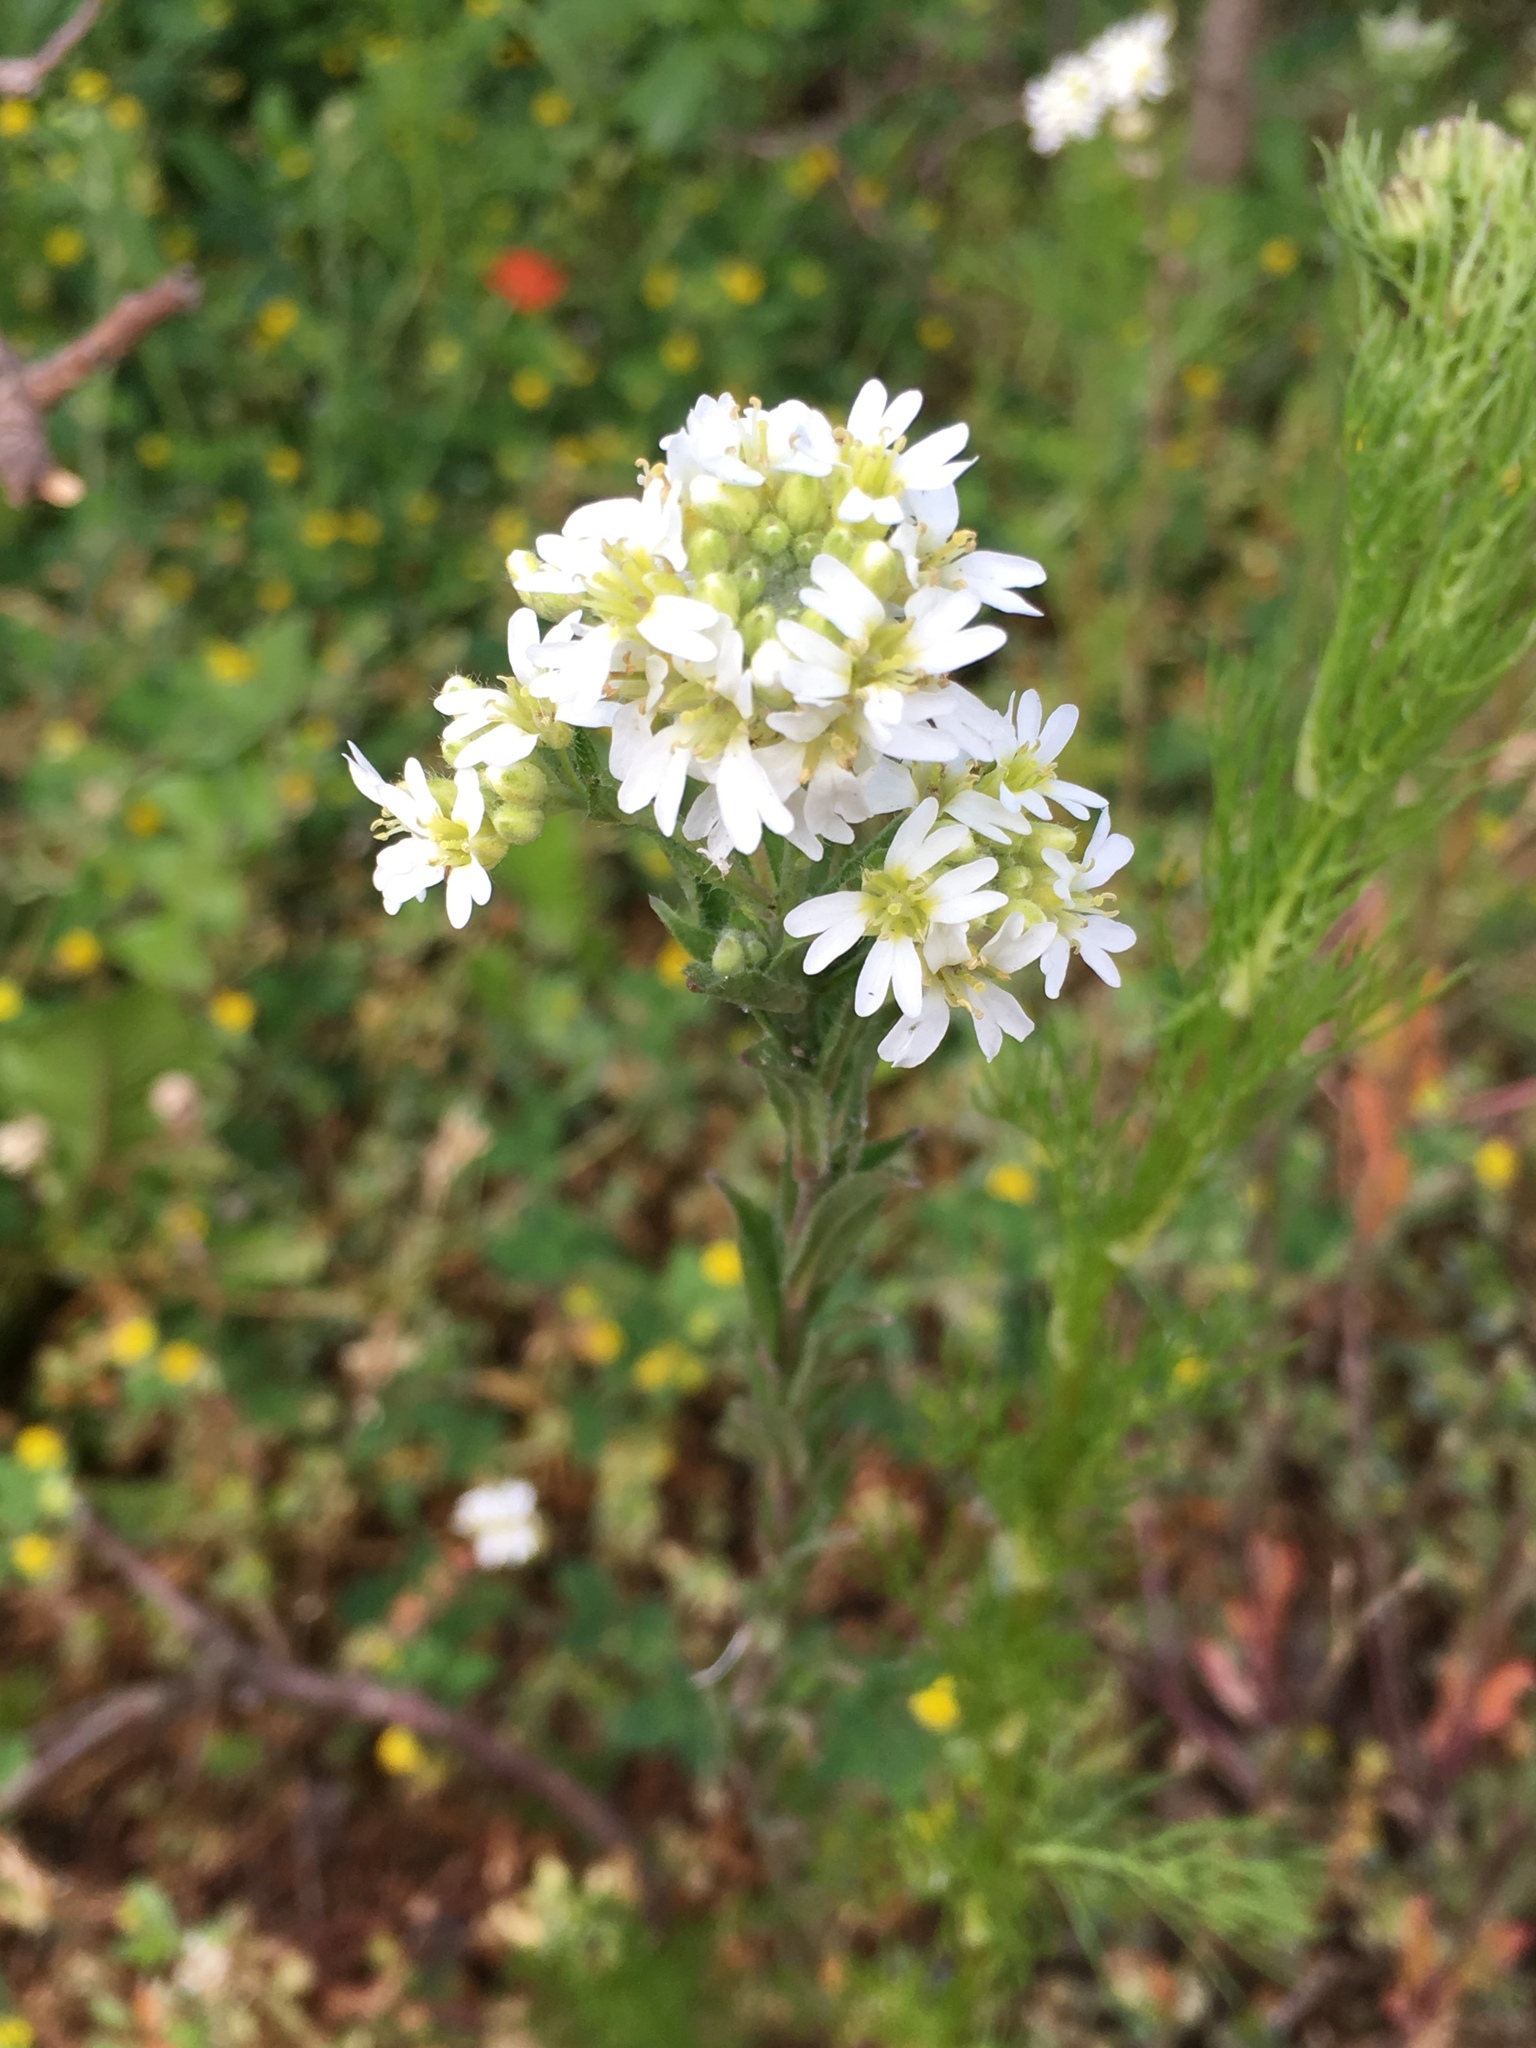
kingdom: Plantae
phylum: Tracheophyta
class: Magnoliopsida
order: Brassicales
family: Brassicaceae
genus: Berteroa
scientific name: Berteroa incana
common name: Hoary alison
